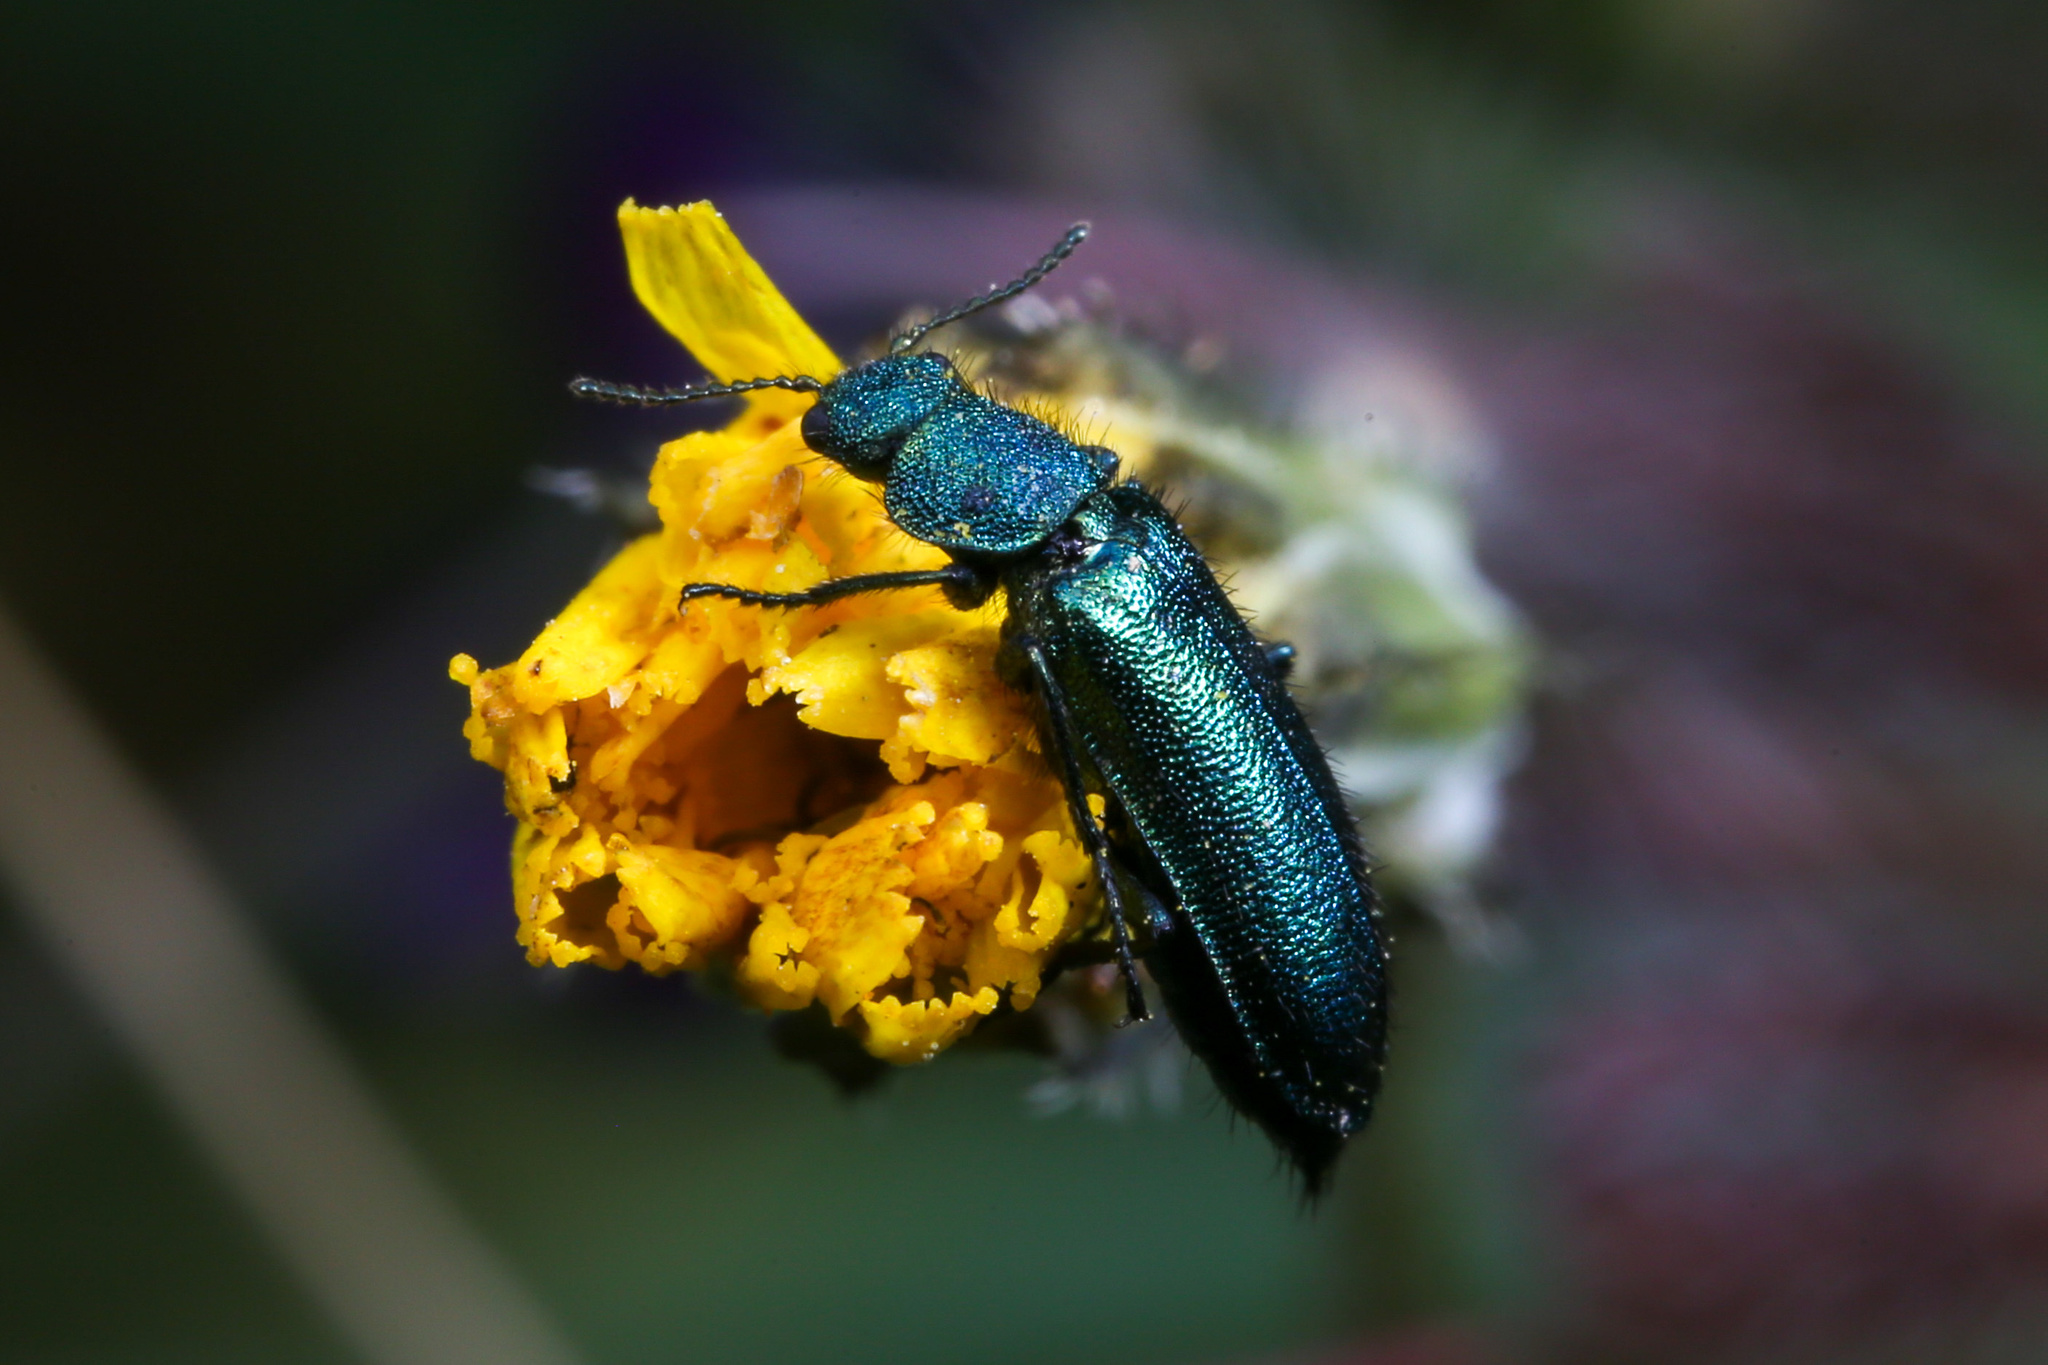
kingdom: Animalia
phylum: Arthropoda
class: Insecta
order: Coleoptera
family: Dasytidae
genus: Psilothrix
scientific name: Psilothrix viridicoerulea
